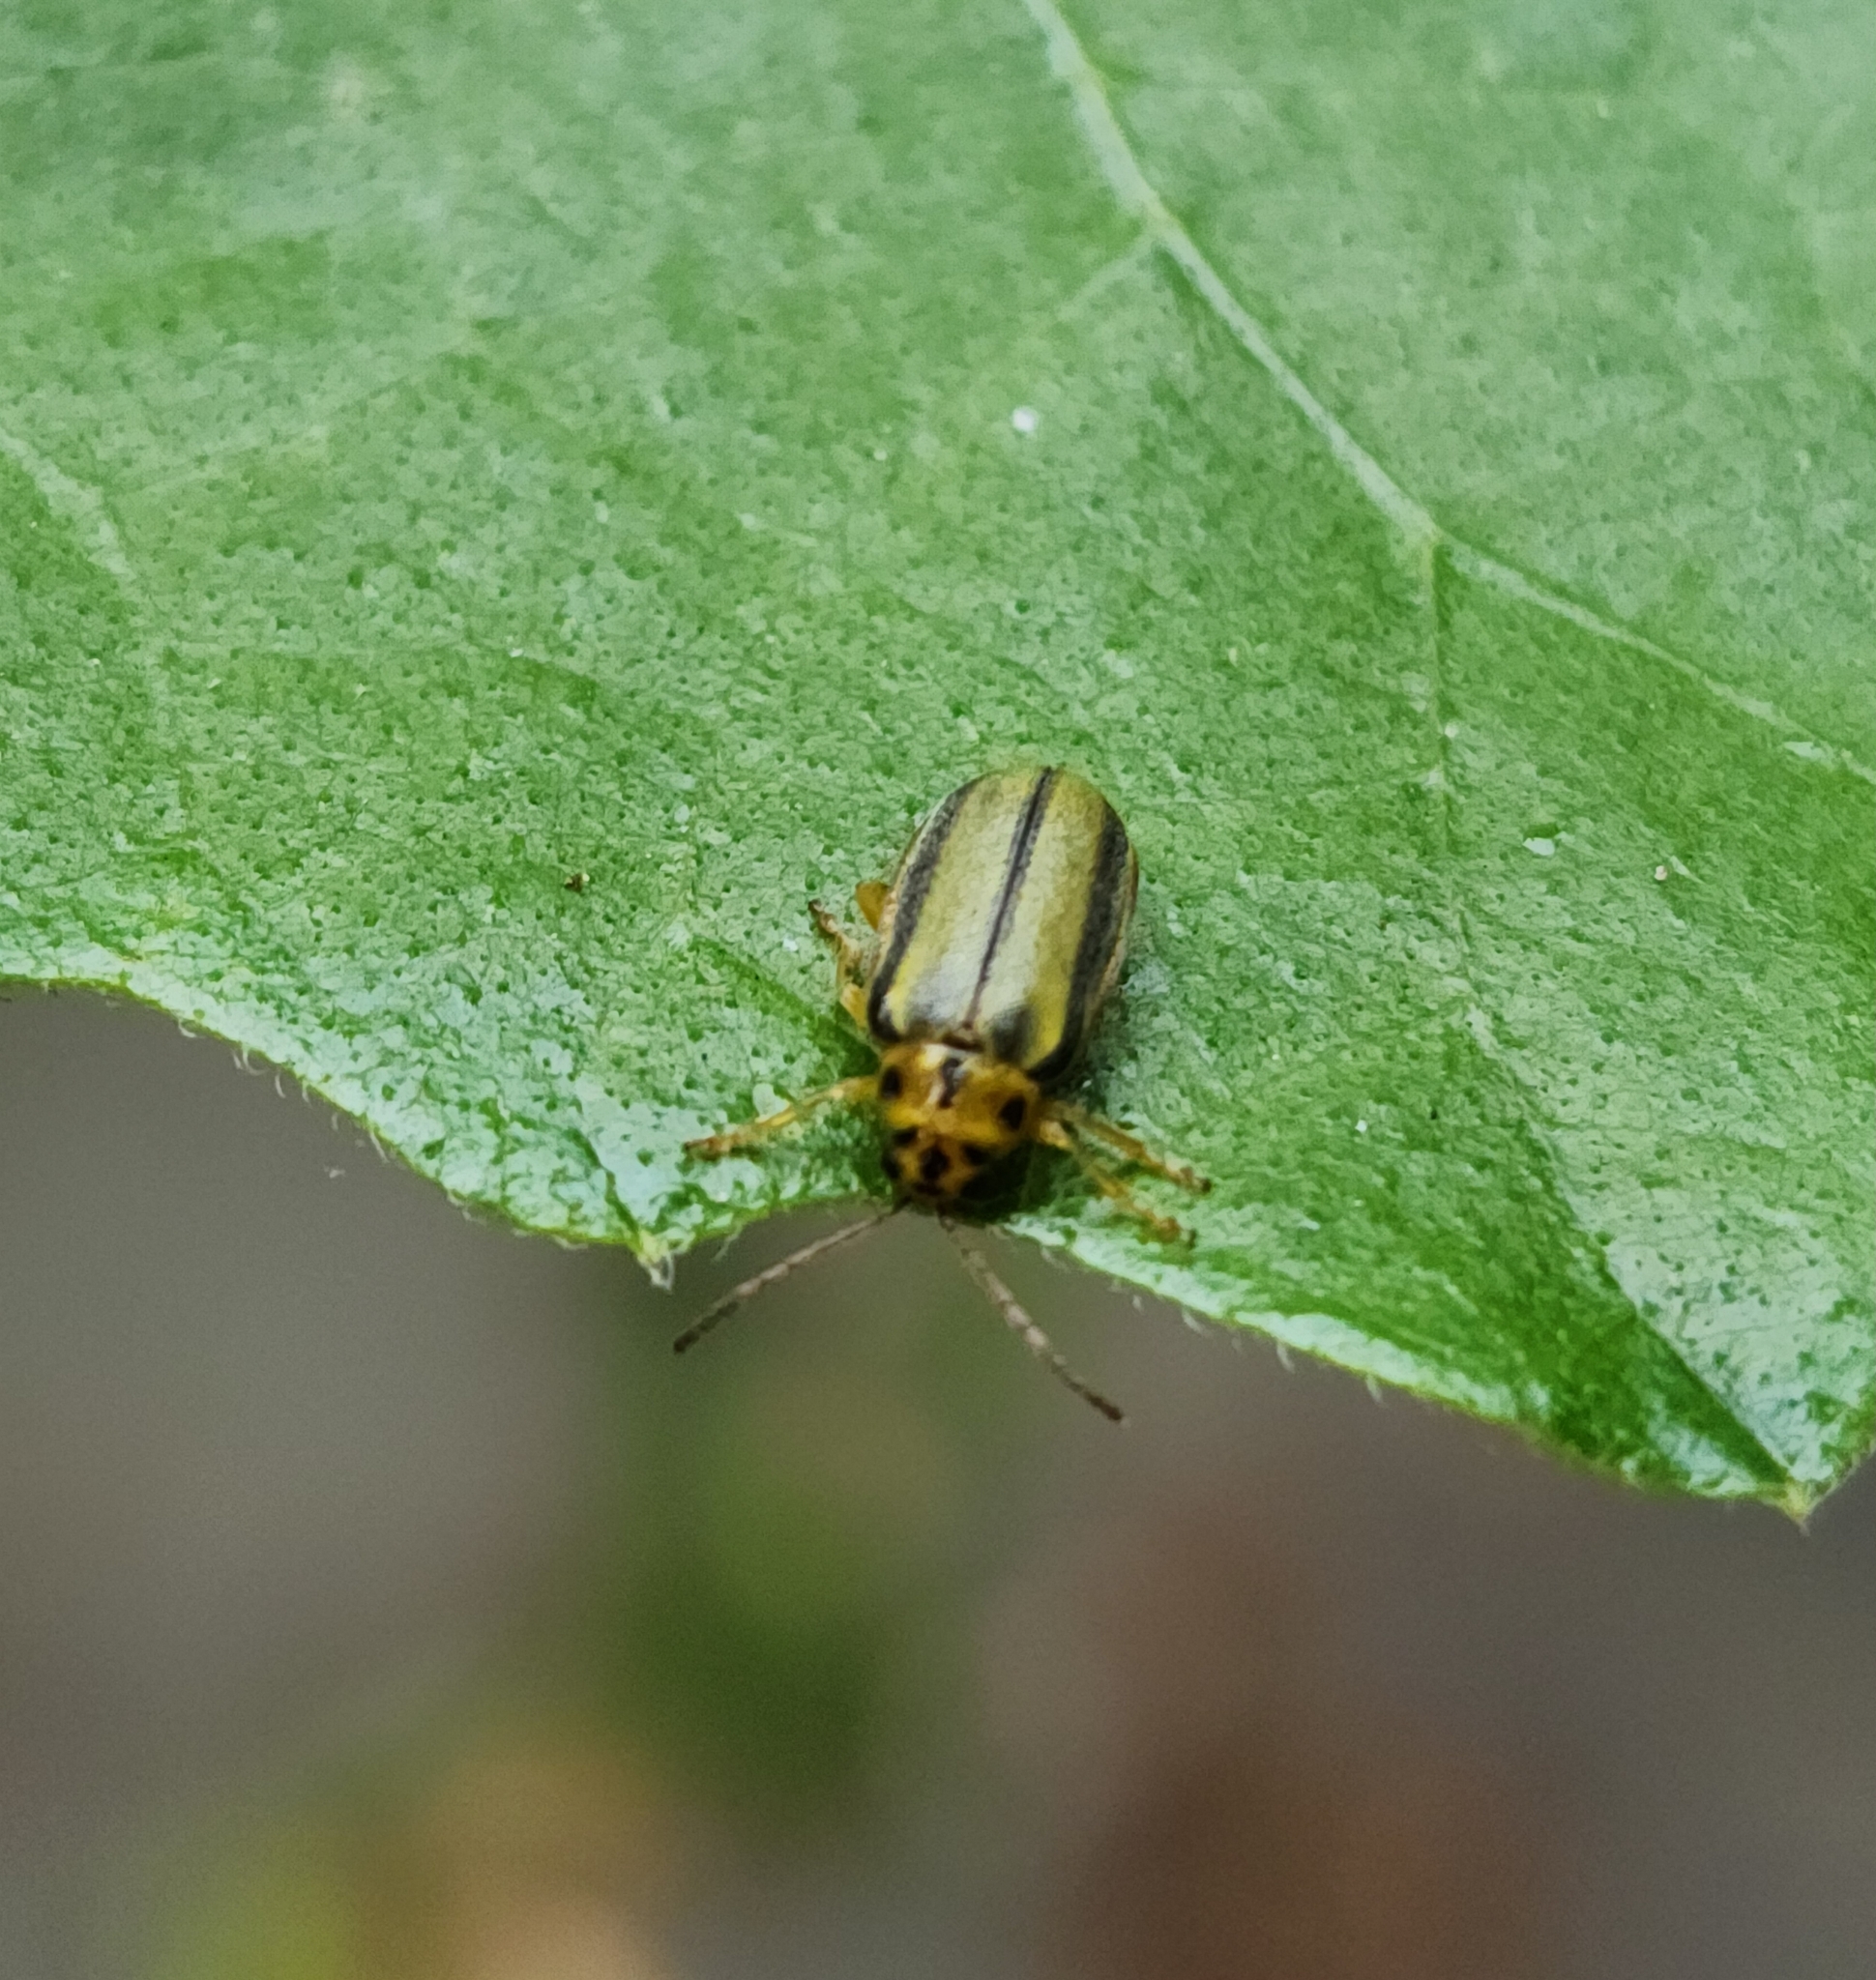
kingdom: Animalia
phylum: Arthropoda
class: Insecta
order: Coleoptera
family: Chrysomelidae
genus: Xanthogaleruca
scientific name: Xanthogaleruca luteola
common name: Elm leaf beetle
